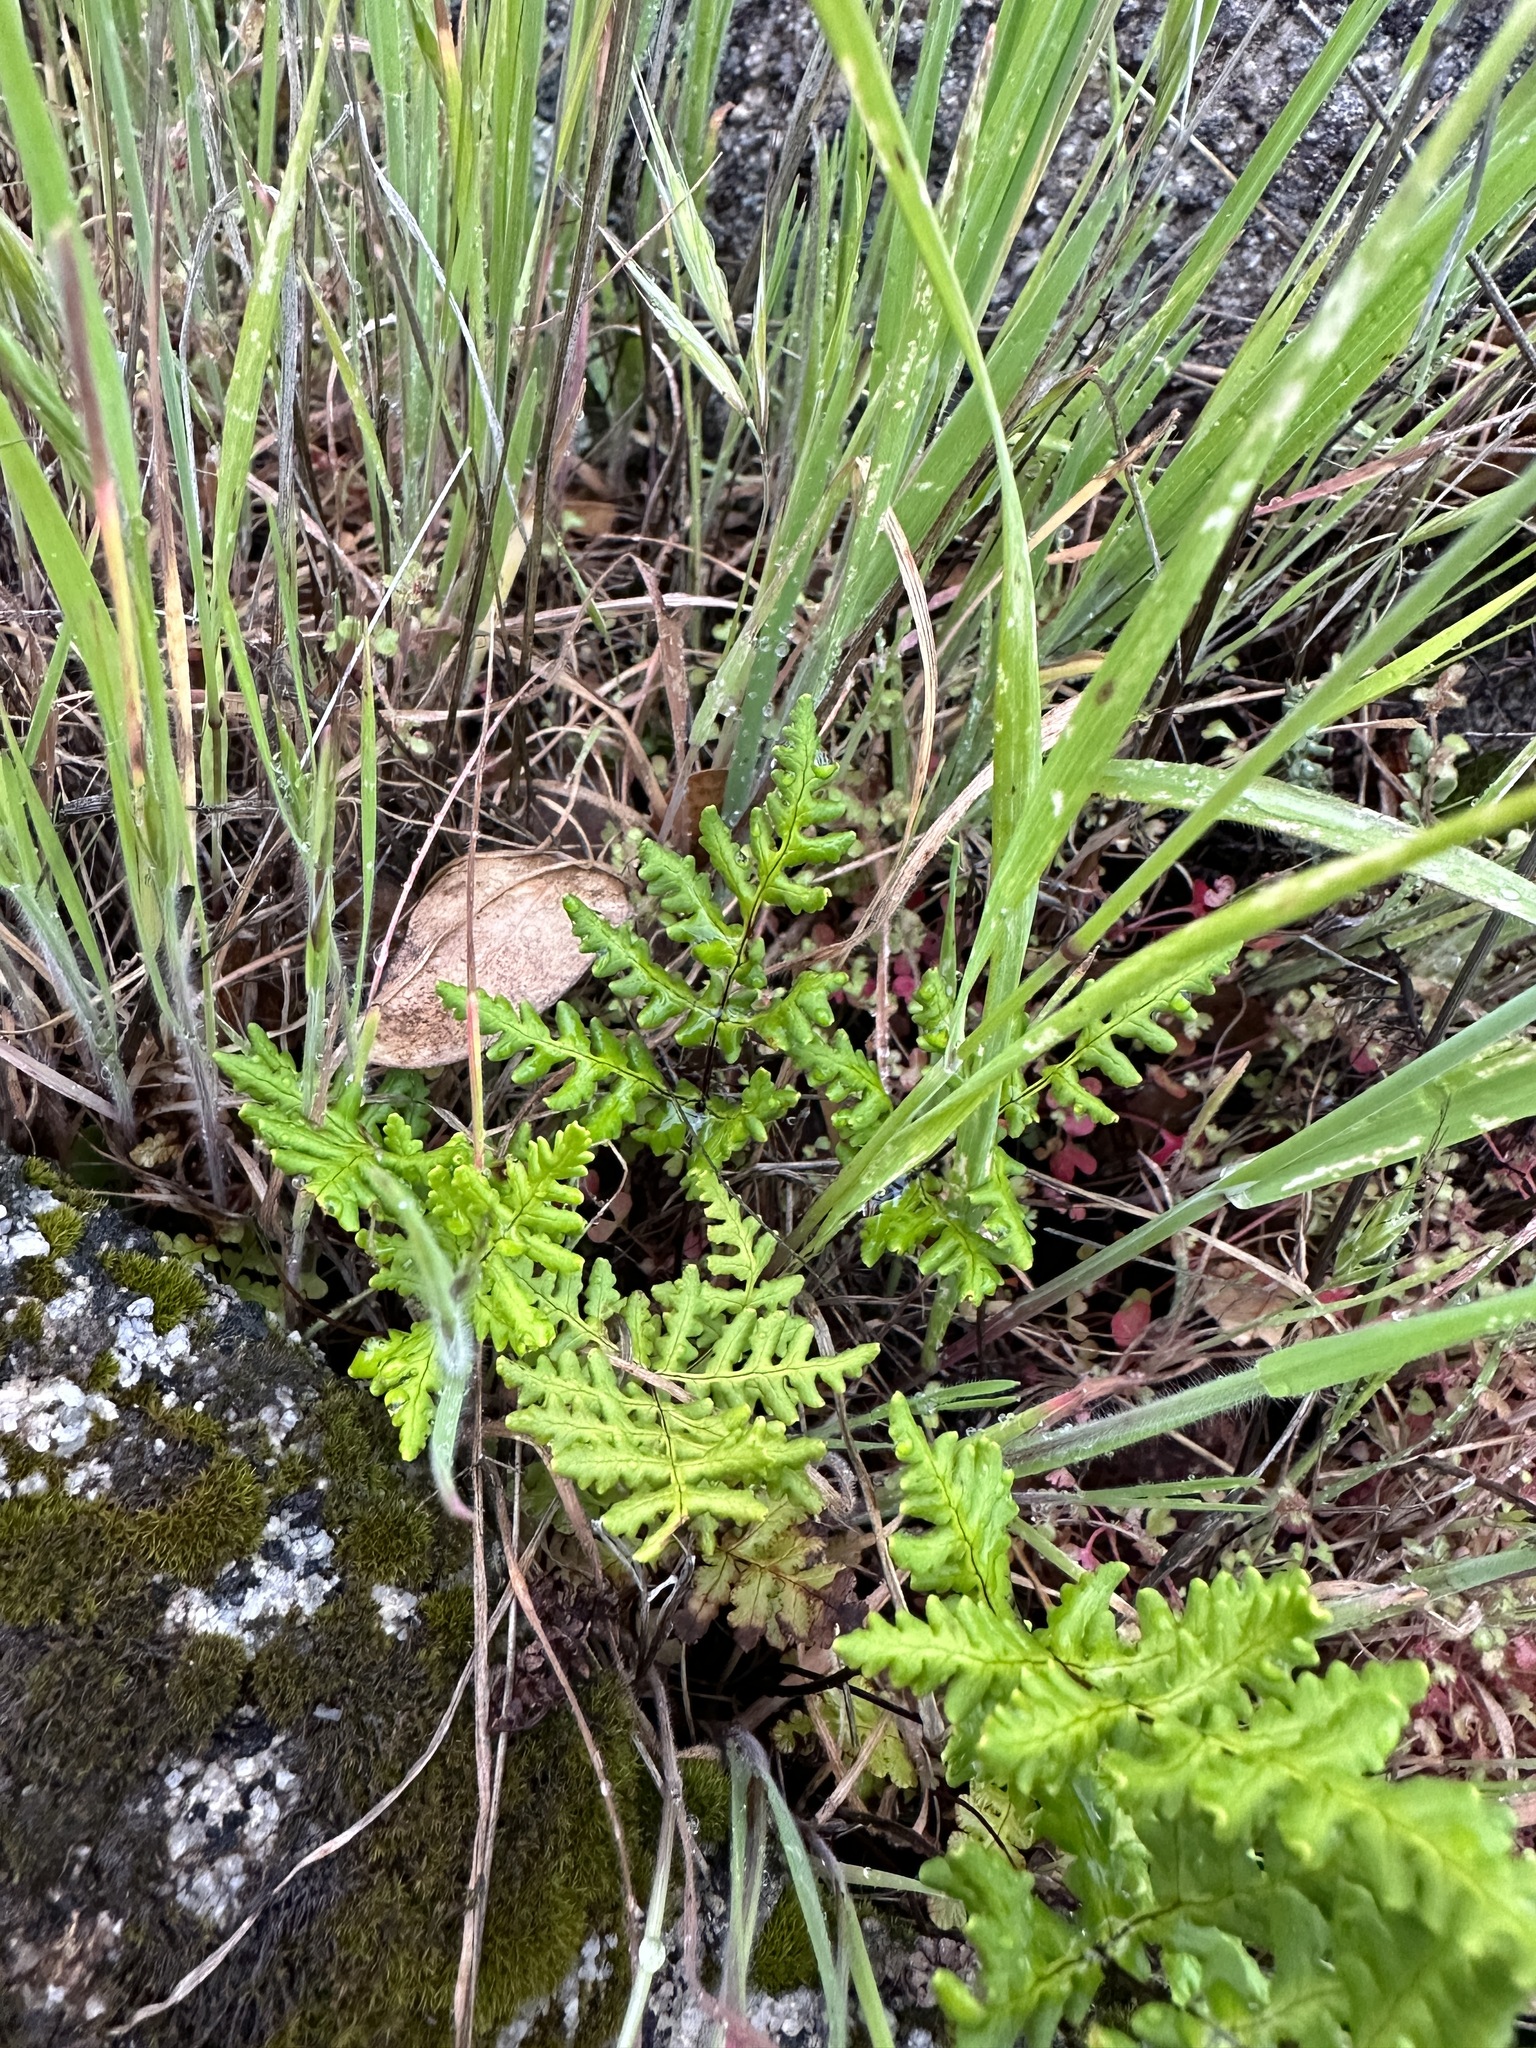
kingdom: Plantae
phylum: Tracheophyta
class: Polypodiopsida
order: Polypodiales
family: Pteridaceae
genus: Pentagramma
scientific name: Pentagramma triangularis
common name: Gold fern
